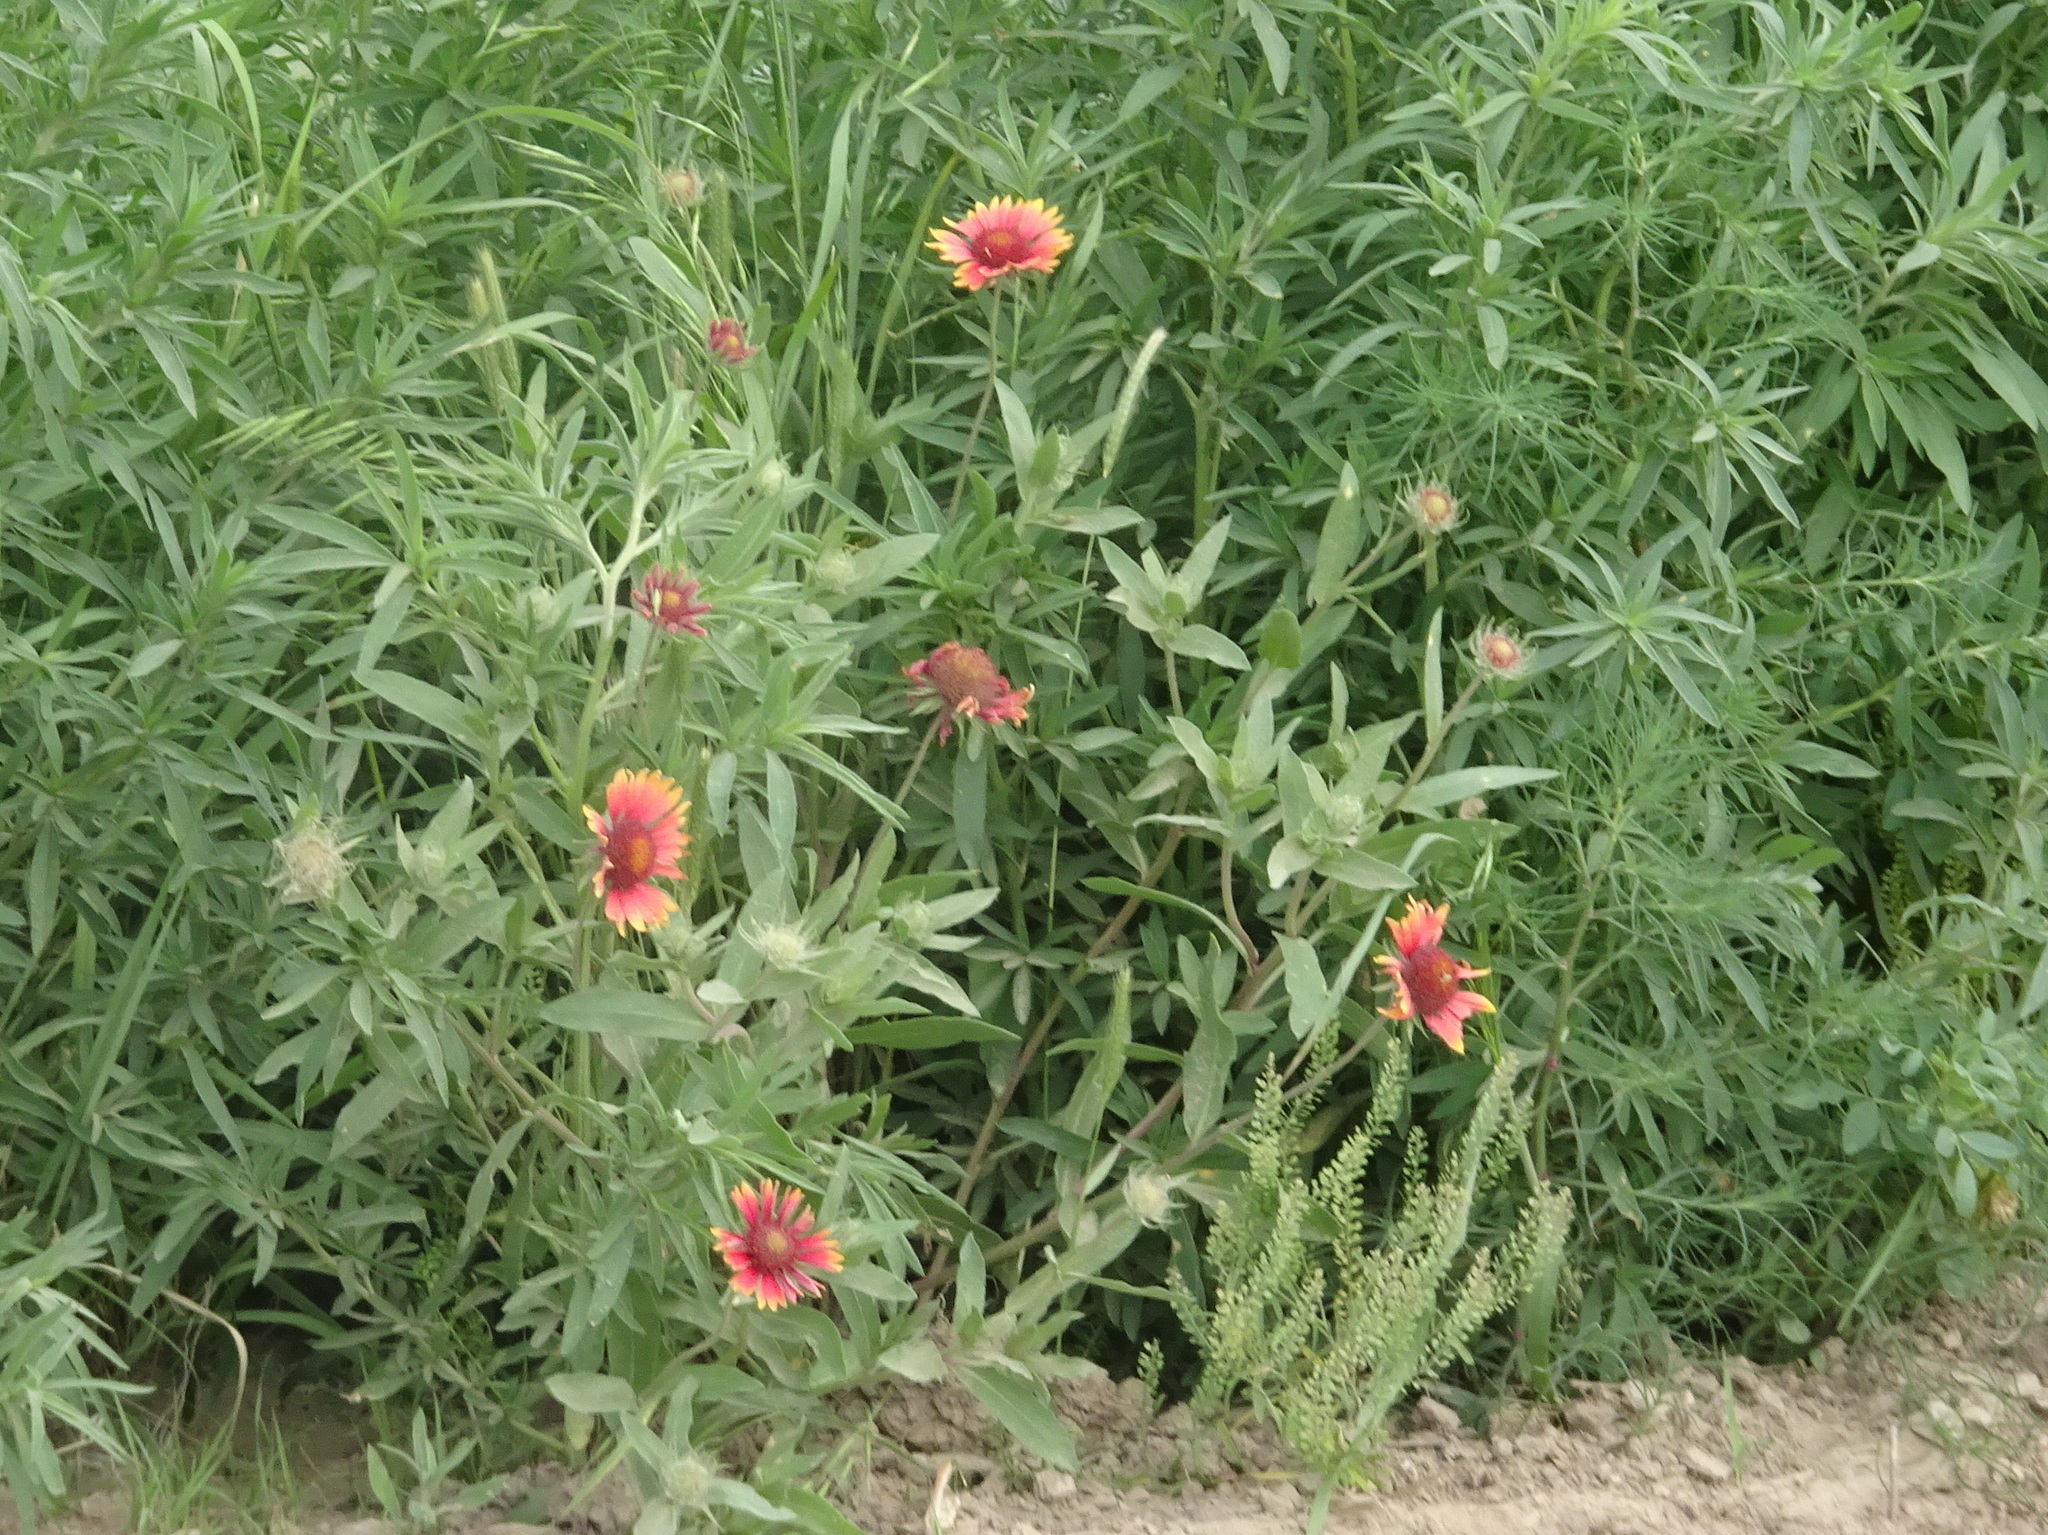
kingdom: Plantae
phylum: Tracheophyta
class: Magnoliopsida
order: Asterales
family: Asteraceae
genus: Gaillardia
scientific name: Gaillardia pulchella
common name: Firewheel
